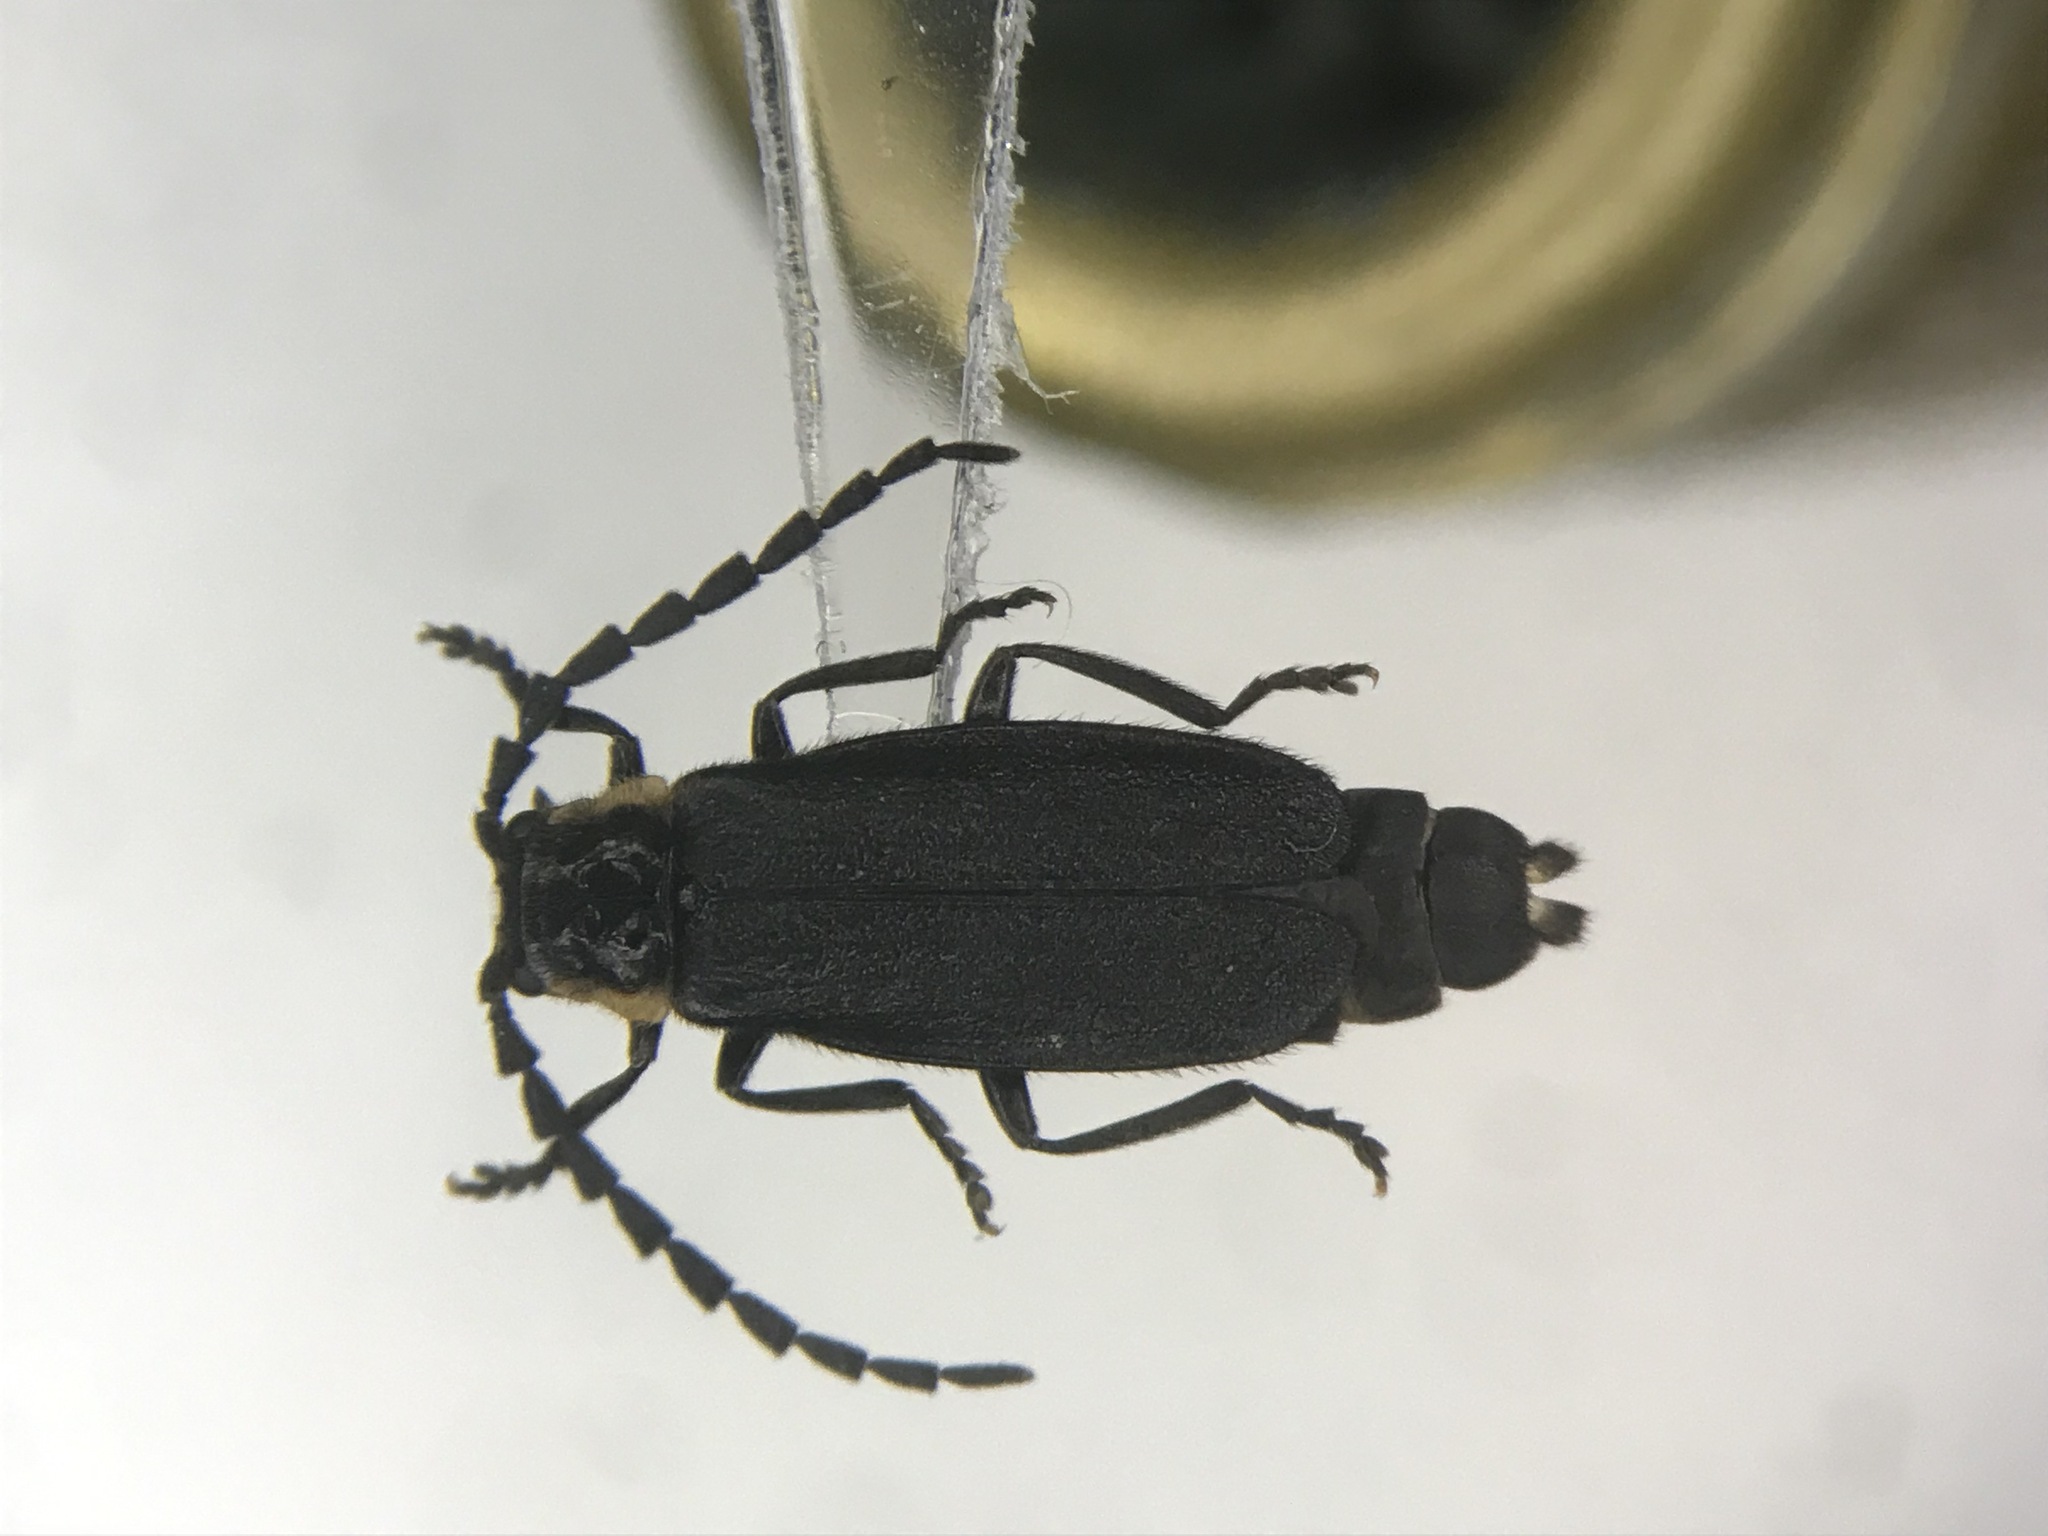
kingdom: Animalia
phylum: Arthropoda
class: Insecta
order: Coleoptera
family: Cantharidae
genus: Polemius
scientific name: Polemius laticornis
